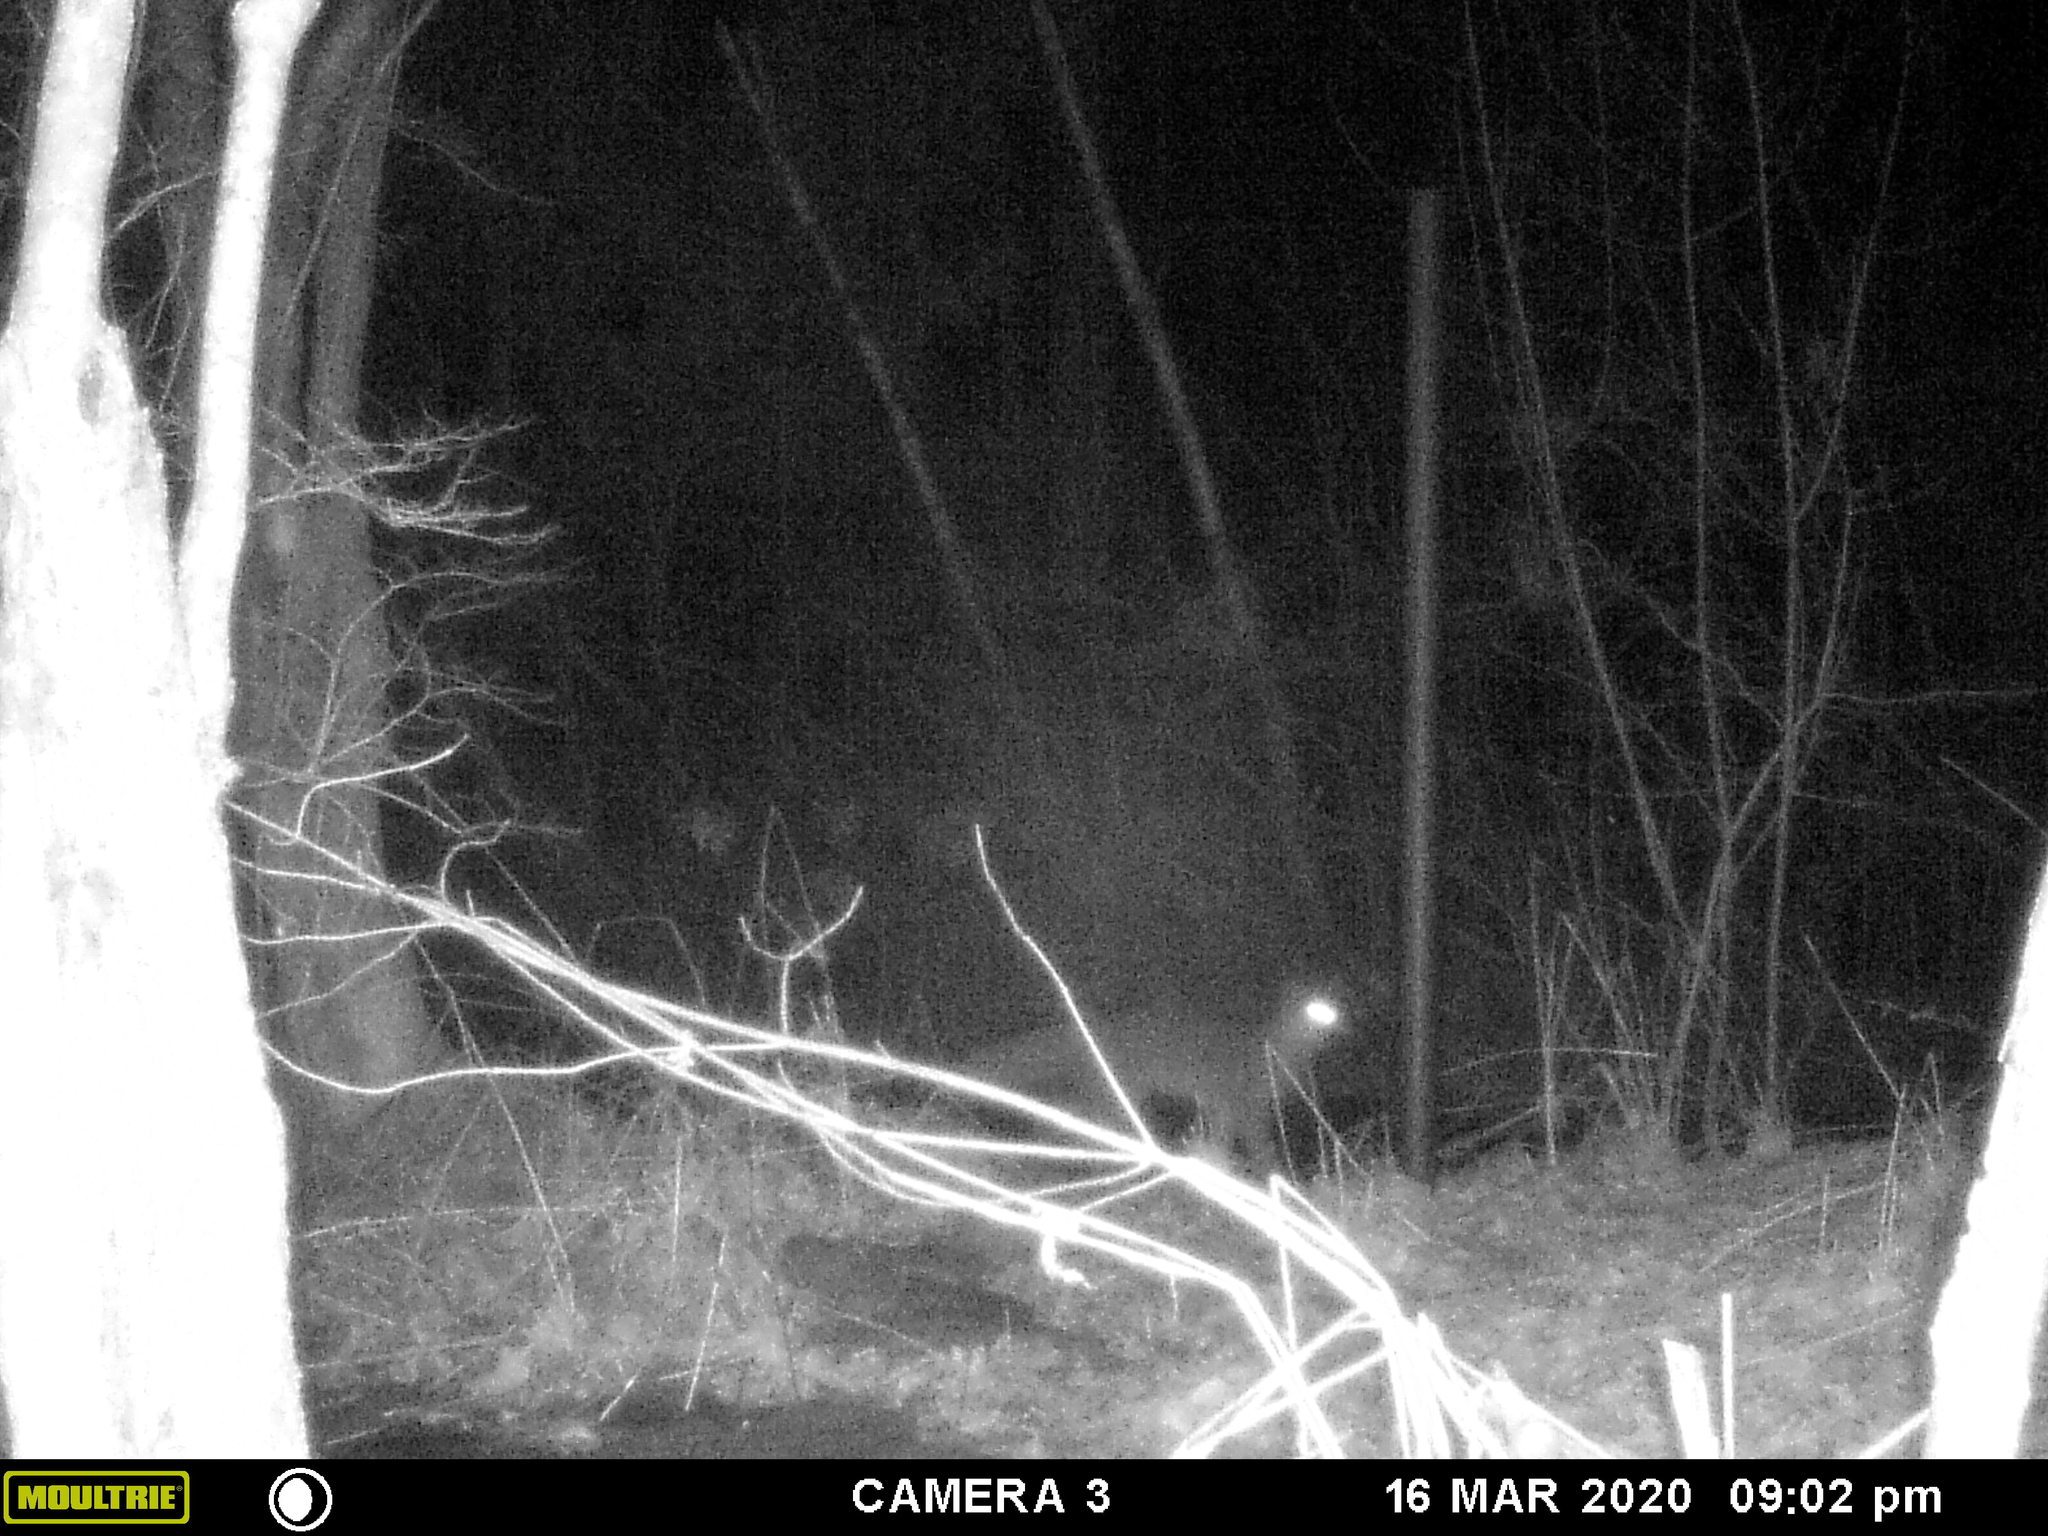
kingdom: Animalia
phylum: Chordata
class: Mammalia
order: Carnivora
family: Canidae
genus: Urocyon
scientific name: Urocyon cinereoargenteus
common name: Gray fox
